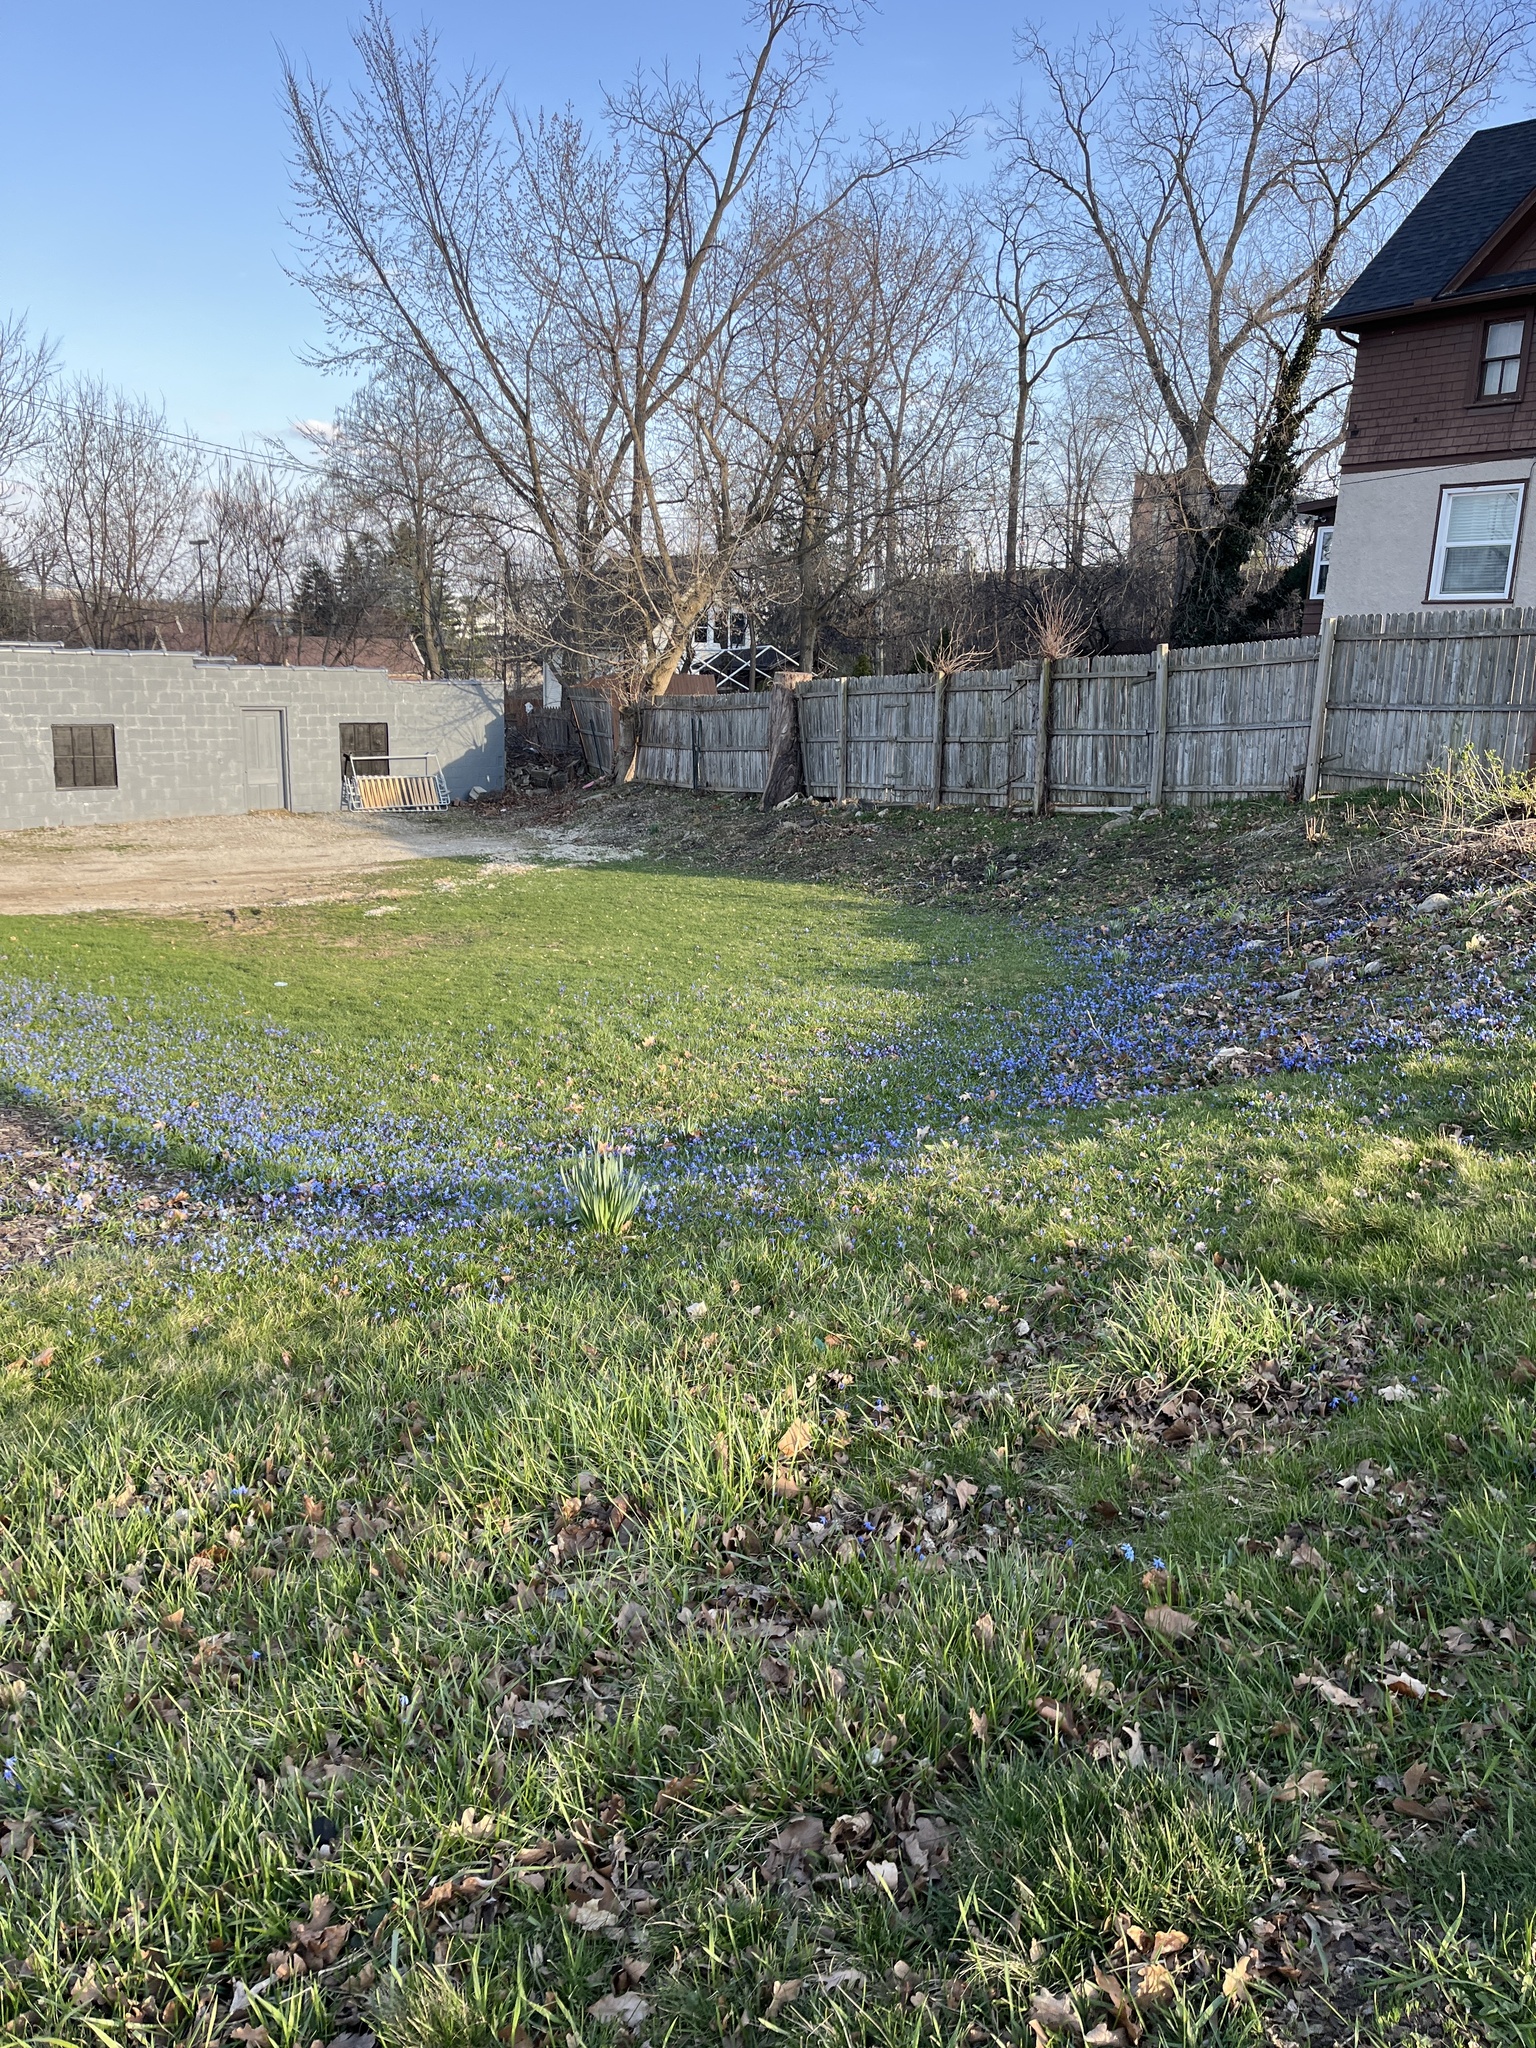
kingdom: Plantae
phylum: Tracheophyta
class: Liliopsida
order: Asparagales
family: Asparagaceae
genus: Scilla
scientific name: Scilla siberica
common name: Siberian squill
